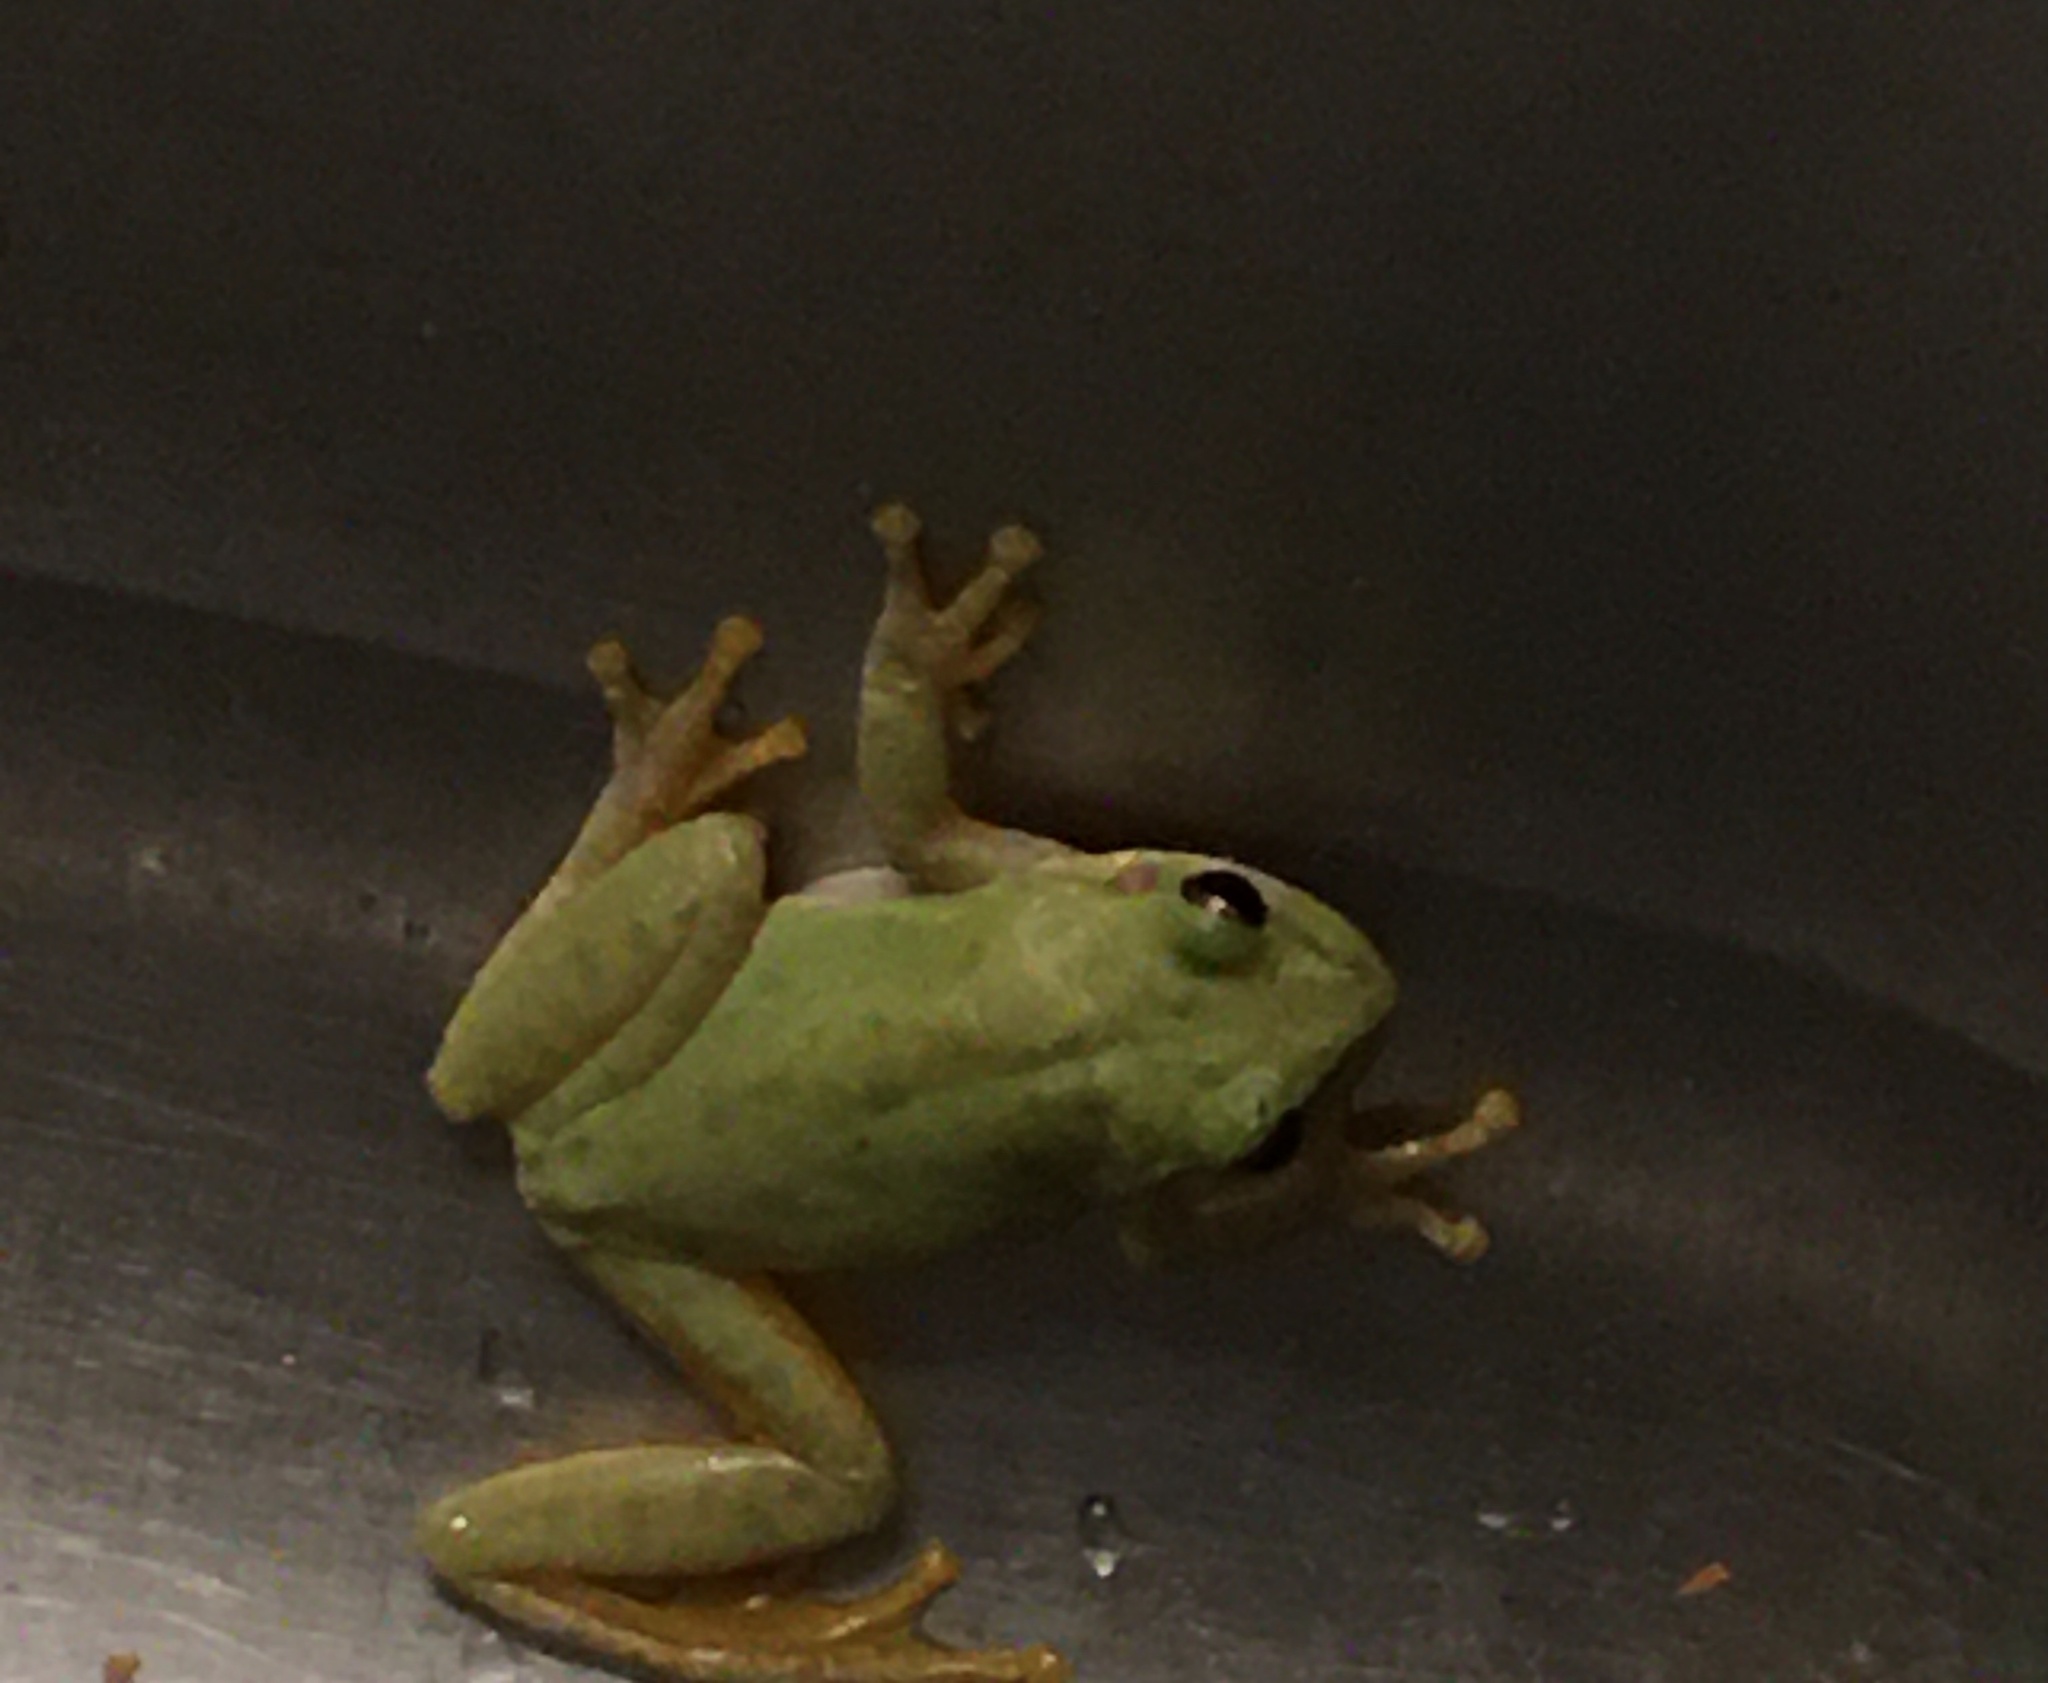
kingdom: Animalia
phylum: Chordata
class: Amphibia
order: Anura
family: Hylidae
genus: Dryophytes
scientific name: Dryophytes squirellus
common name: Squirrel treefrog
